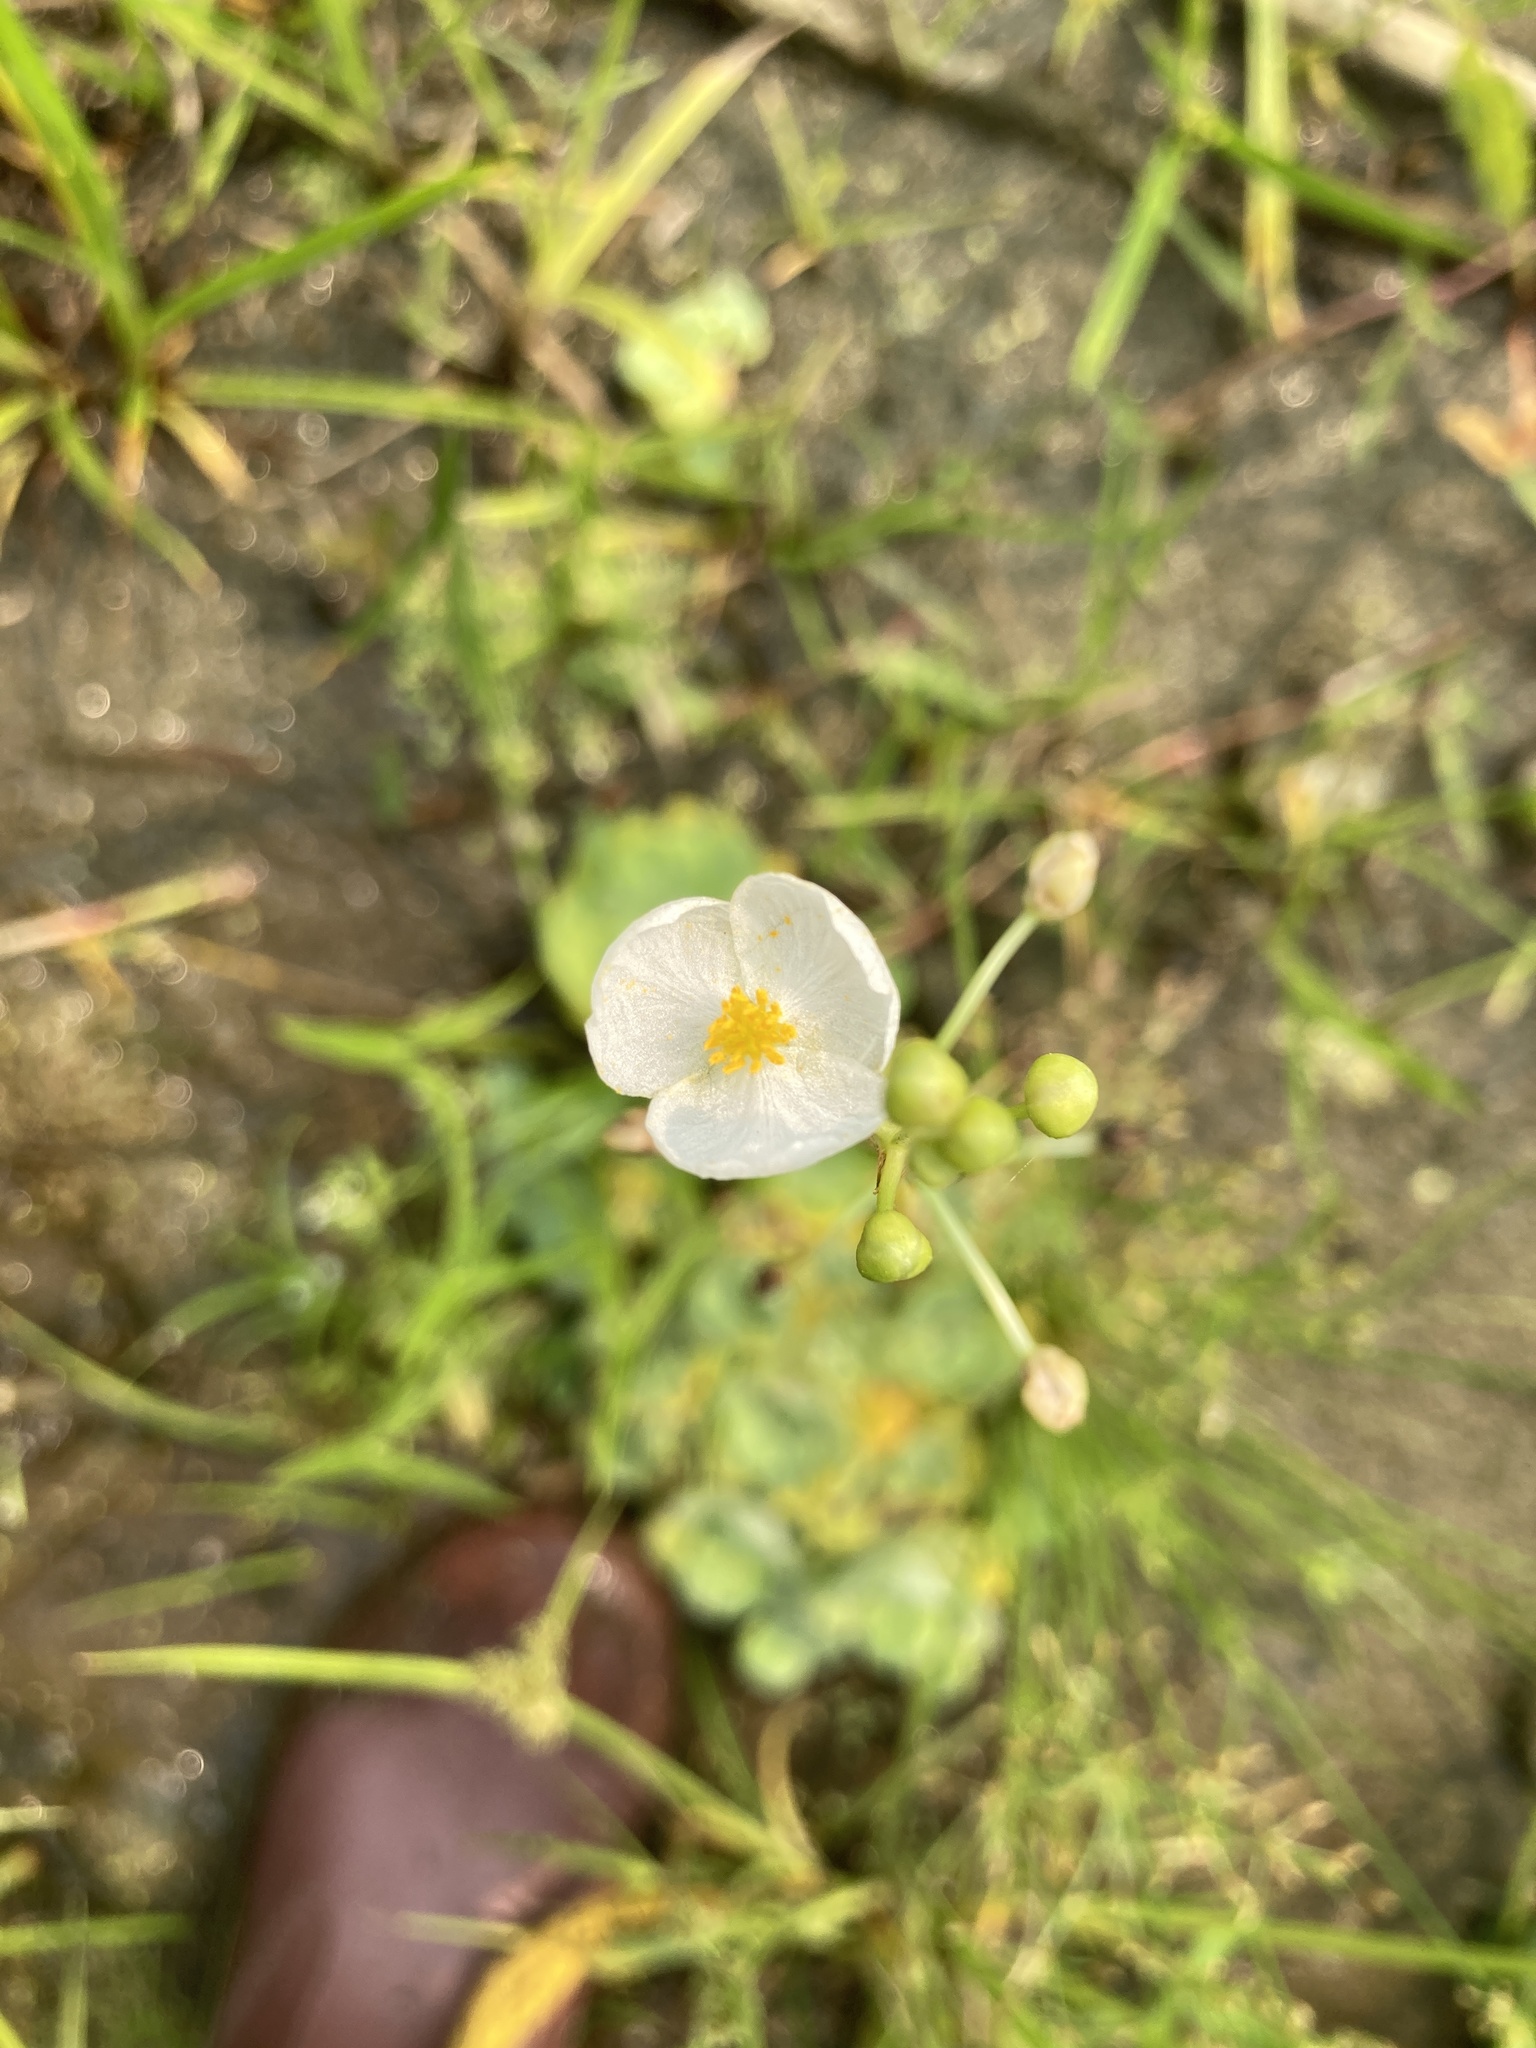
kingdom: Plantae
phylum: Tracheophyta
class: Liliopsida
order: Alismatales
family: Alismataceae
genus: Sagittaria
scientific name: Sagittaria trifolia
